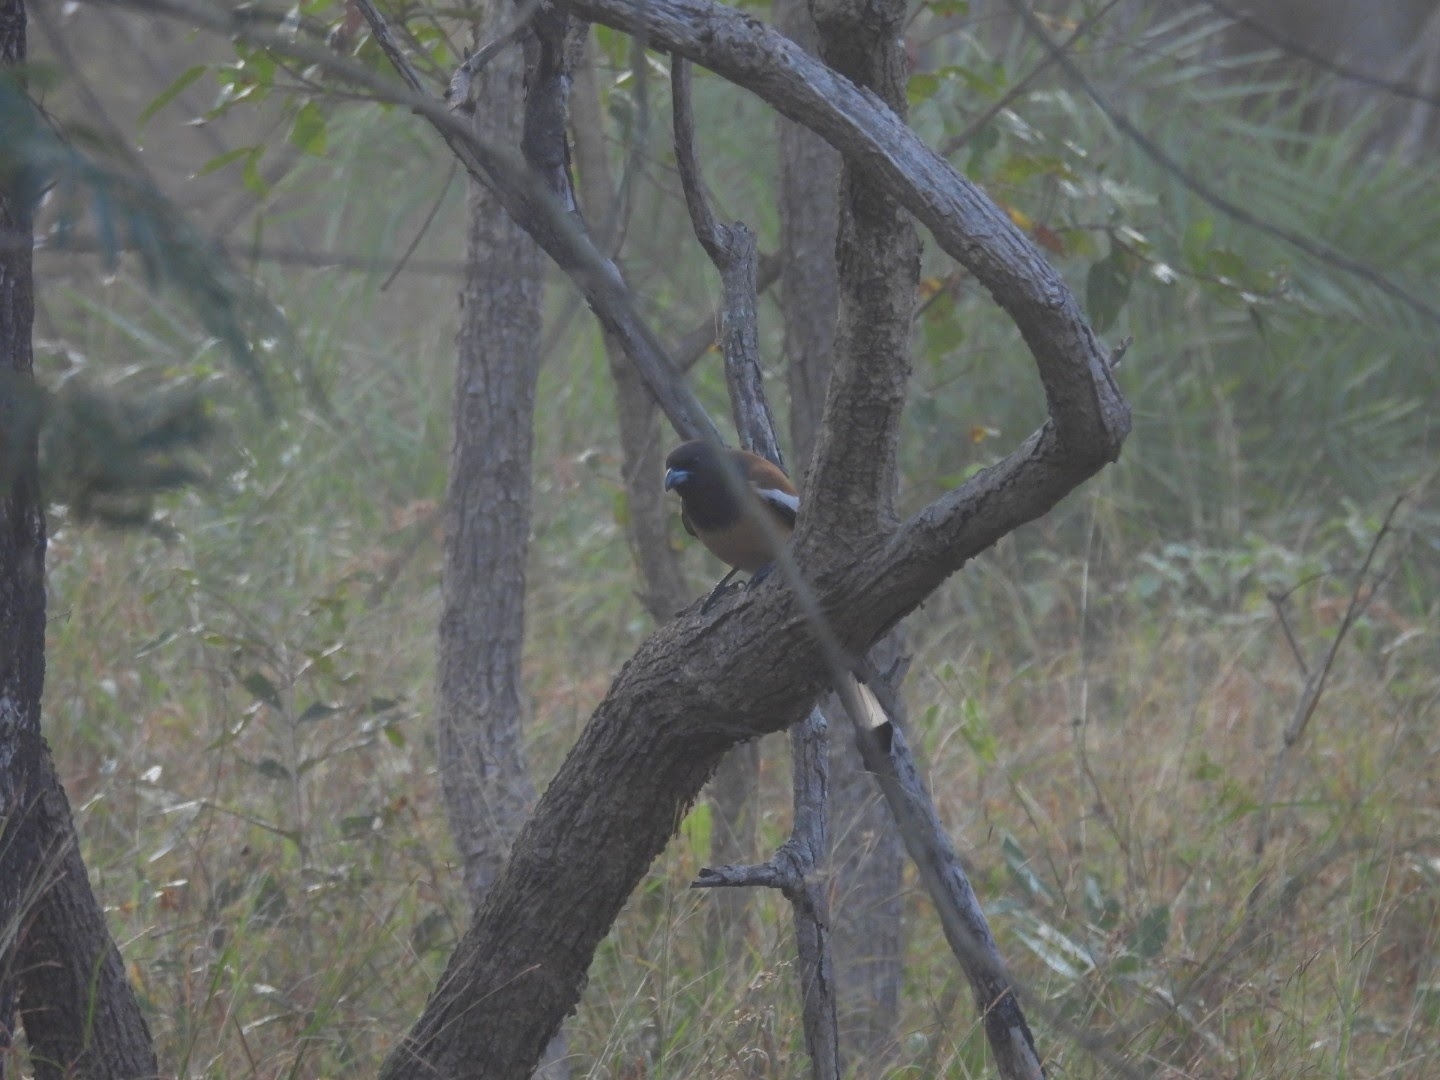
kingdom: Animalia
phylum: Chordata
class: Aves
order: Passeriformes
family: Corvidae
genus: Dendrocitta
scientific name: Dendrocitta vagabunda
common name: Rufous treepie
